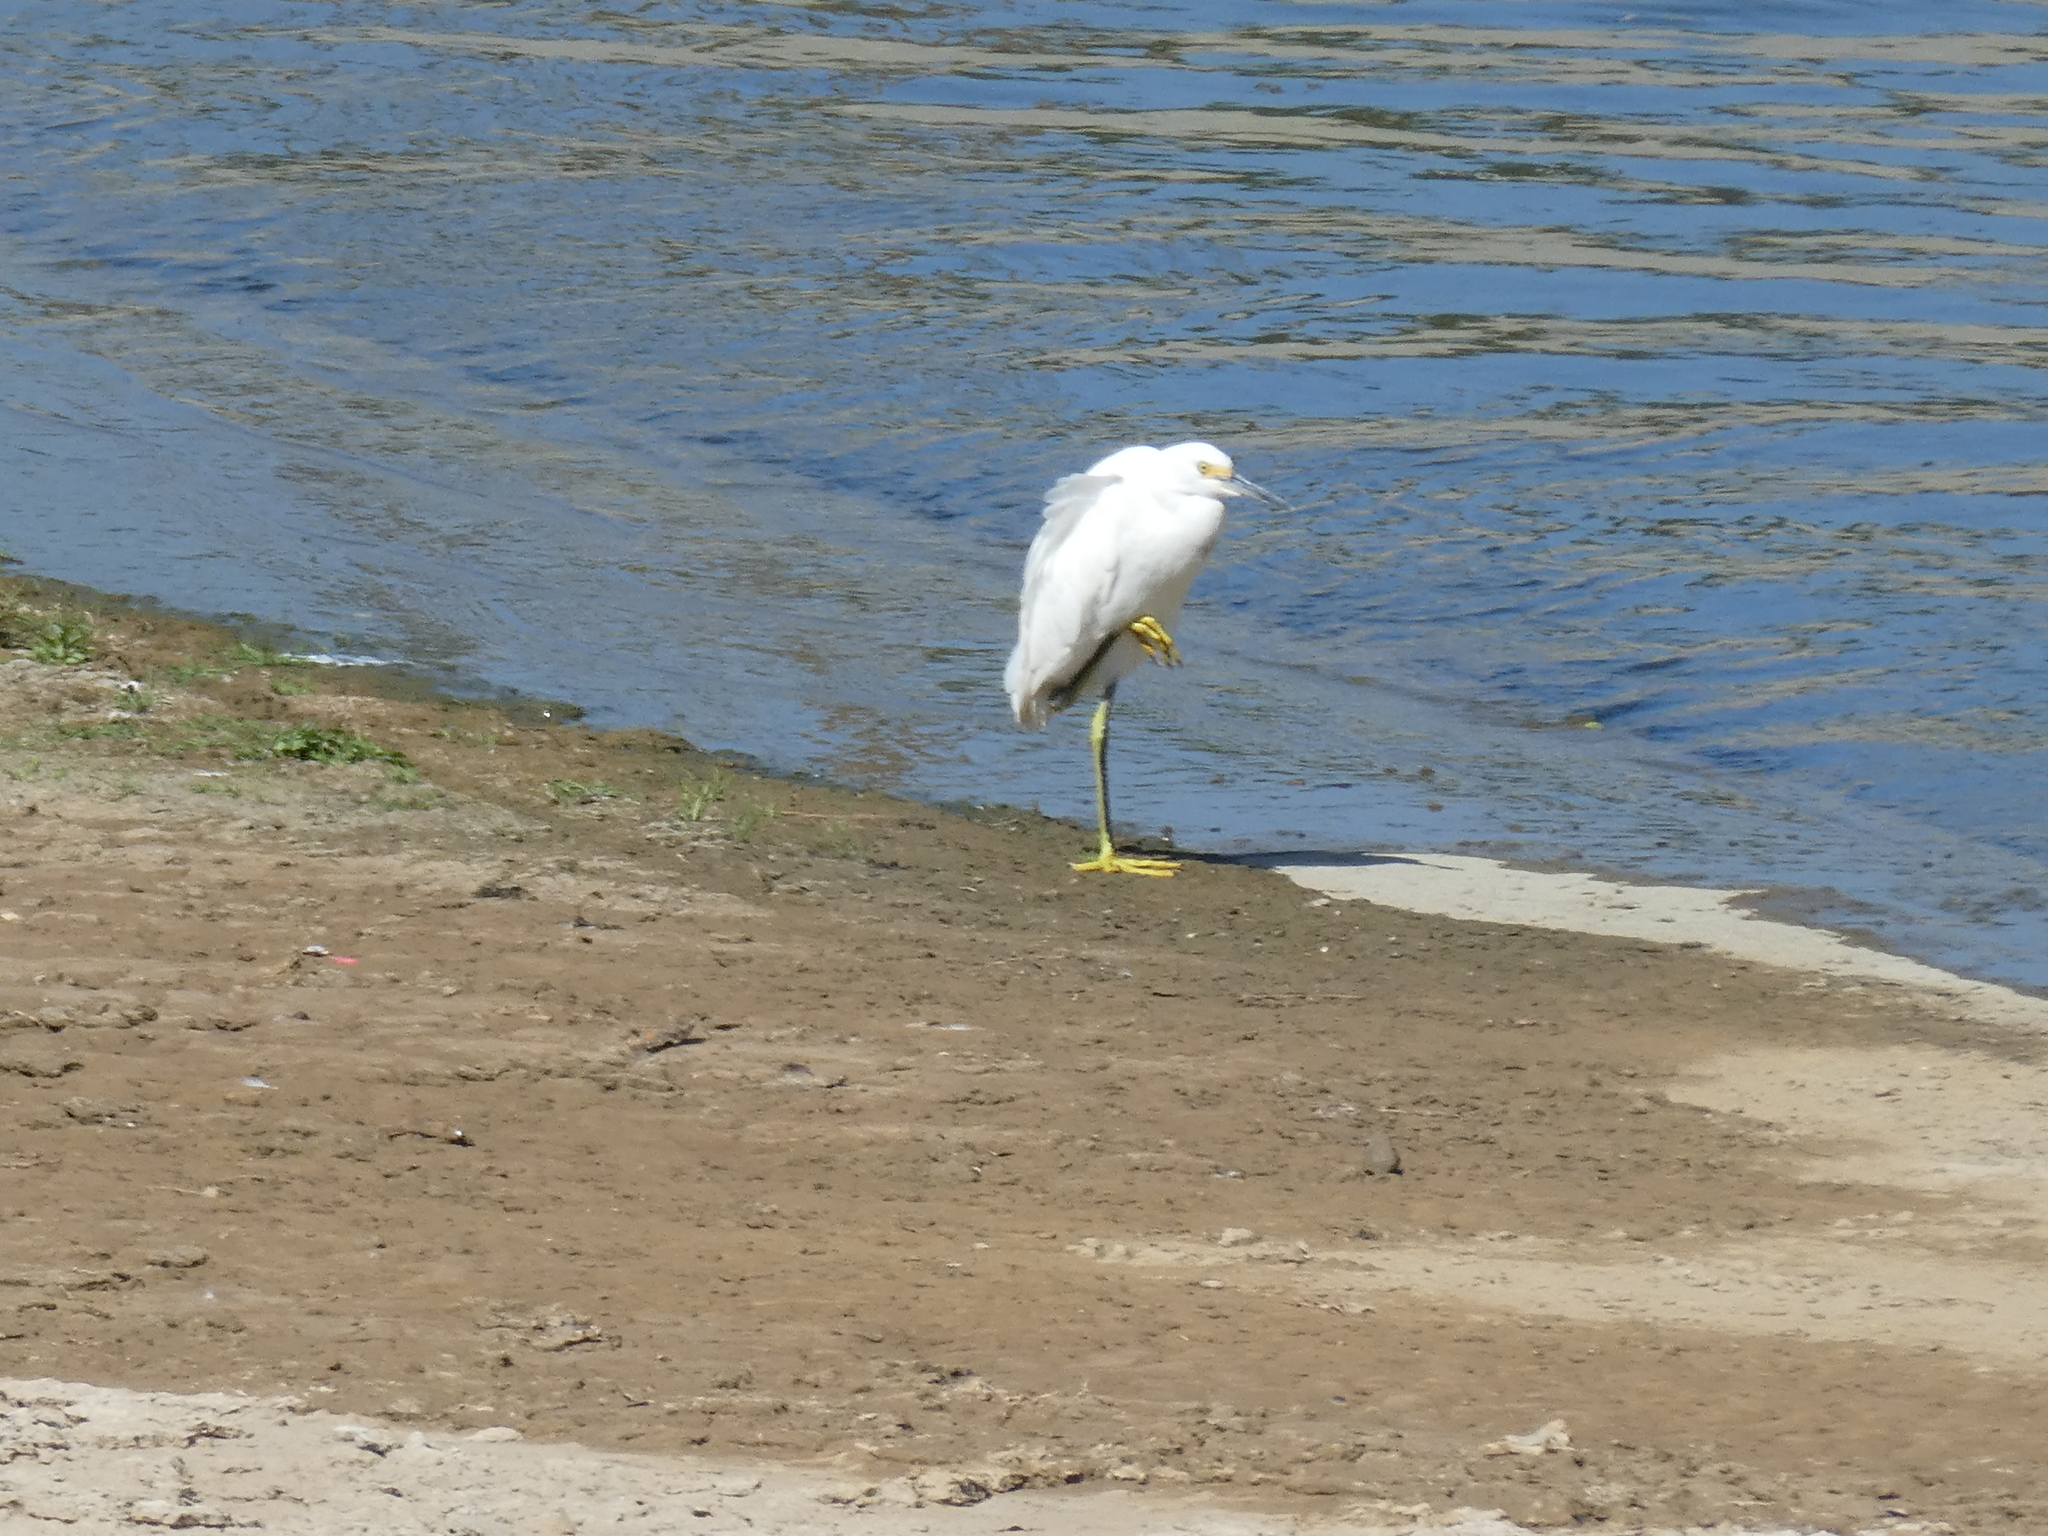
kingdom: Animalia
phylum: Chordata
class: Aves
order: Pelecaniformes
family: Ardeidae
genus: Egretta
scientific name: Egretta thula
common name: Snowy egret
